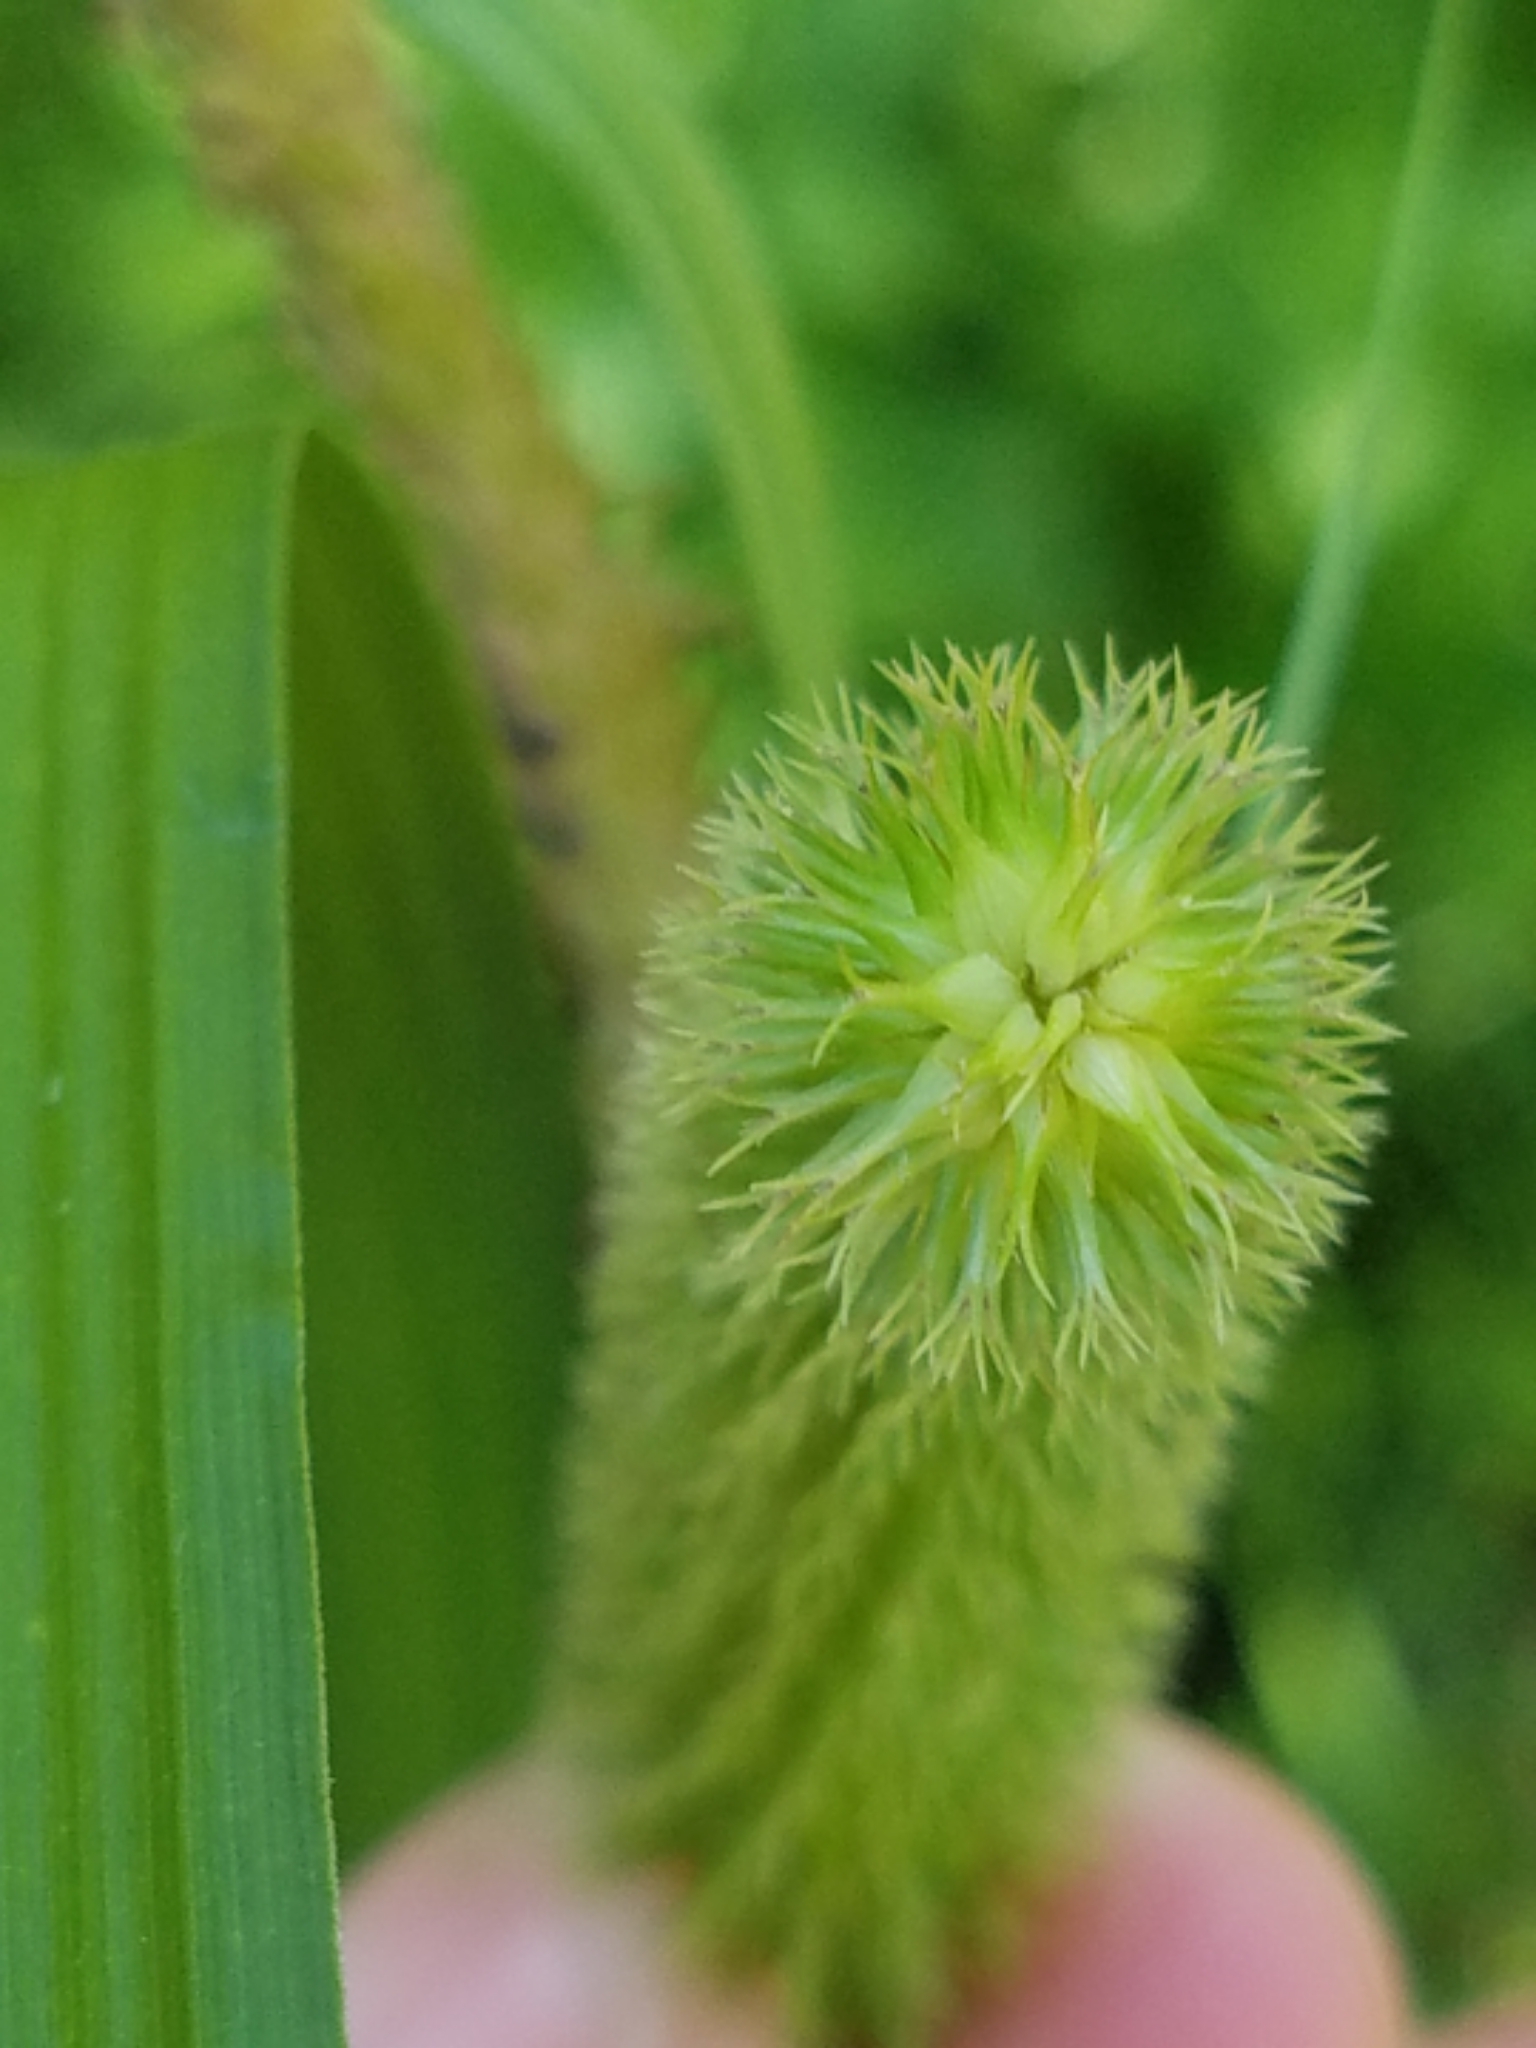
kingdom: Plantae
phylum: Tracheophyta
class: Liliopsida
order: Poales
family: Cyperaceae
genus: Carex
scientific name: Carex comosa
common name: Bristly sedge
